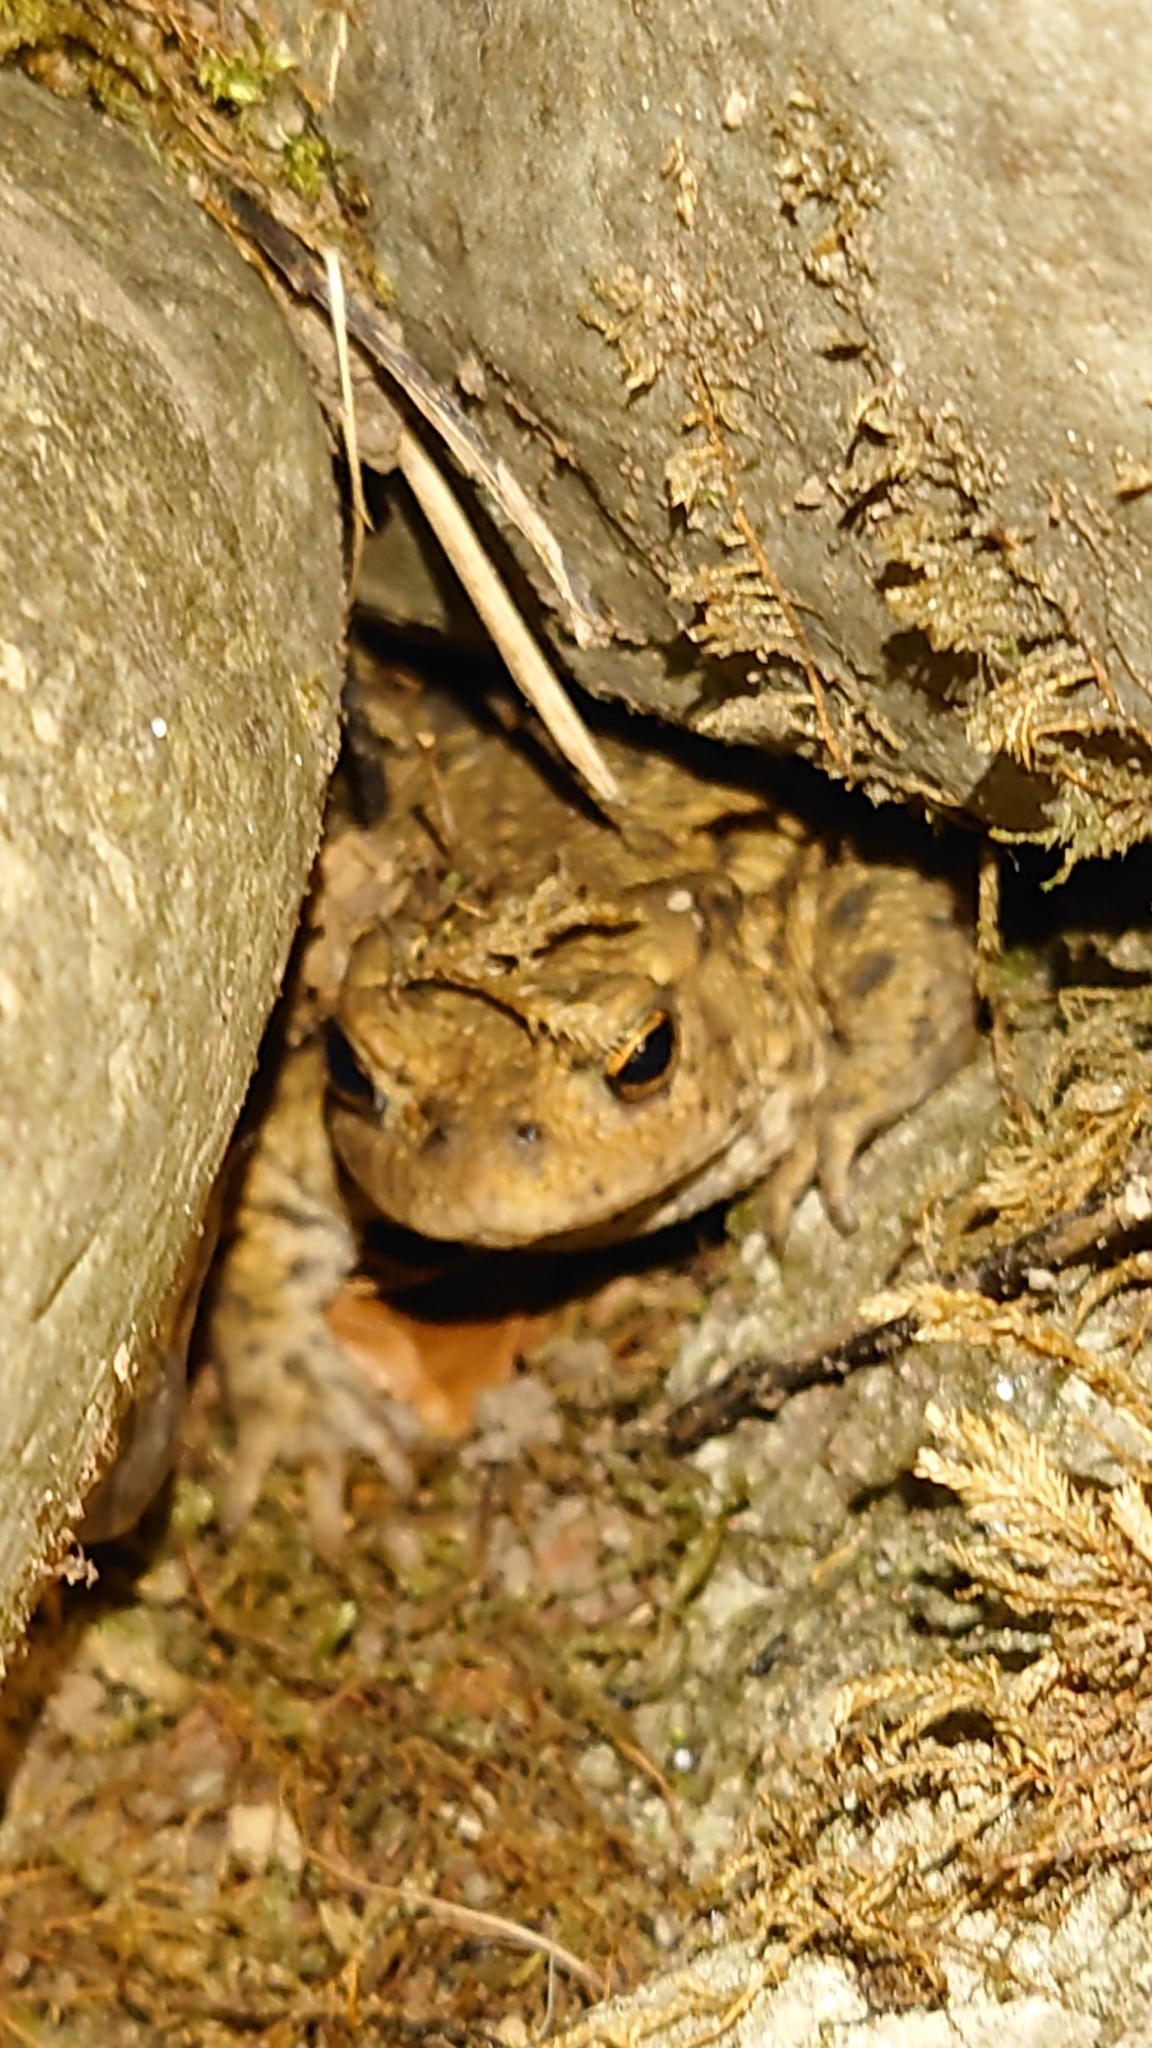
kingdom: Animalia
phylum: Chordata
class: Amphibia
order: Anura
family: Bufonidae
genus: Bufo
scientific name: Bufo bufo
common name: Common toad
